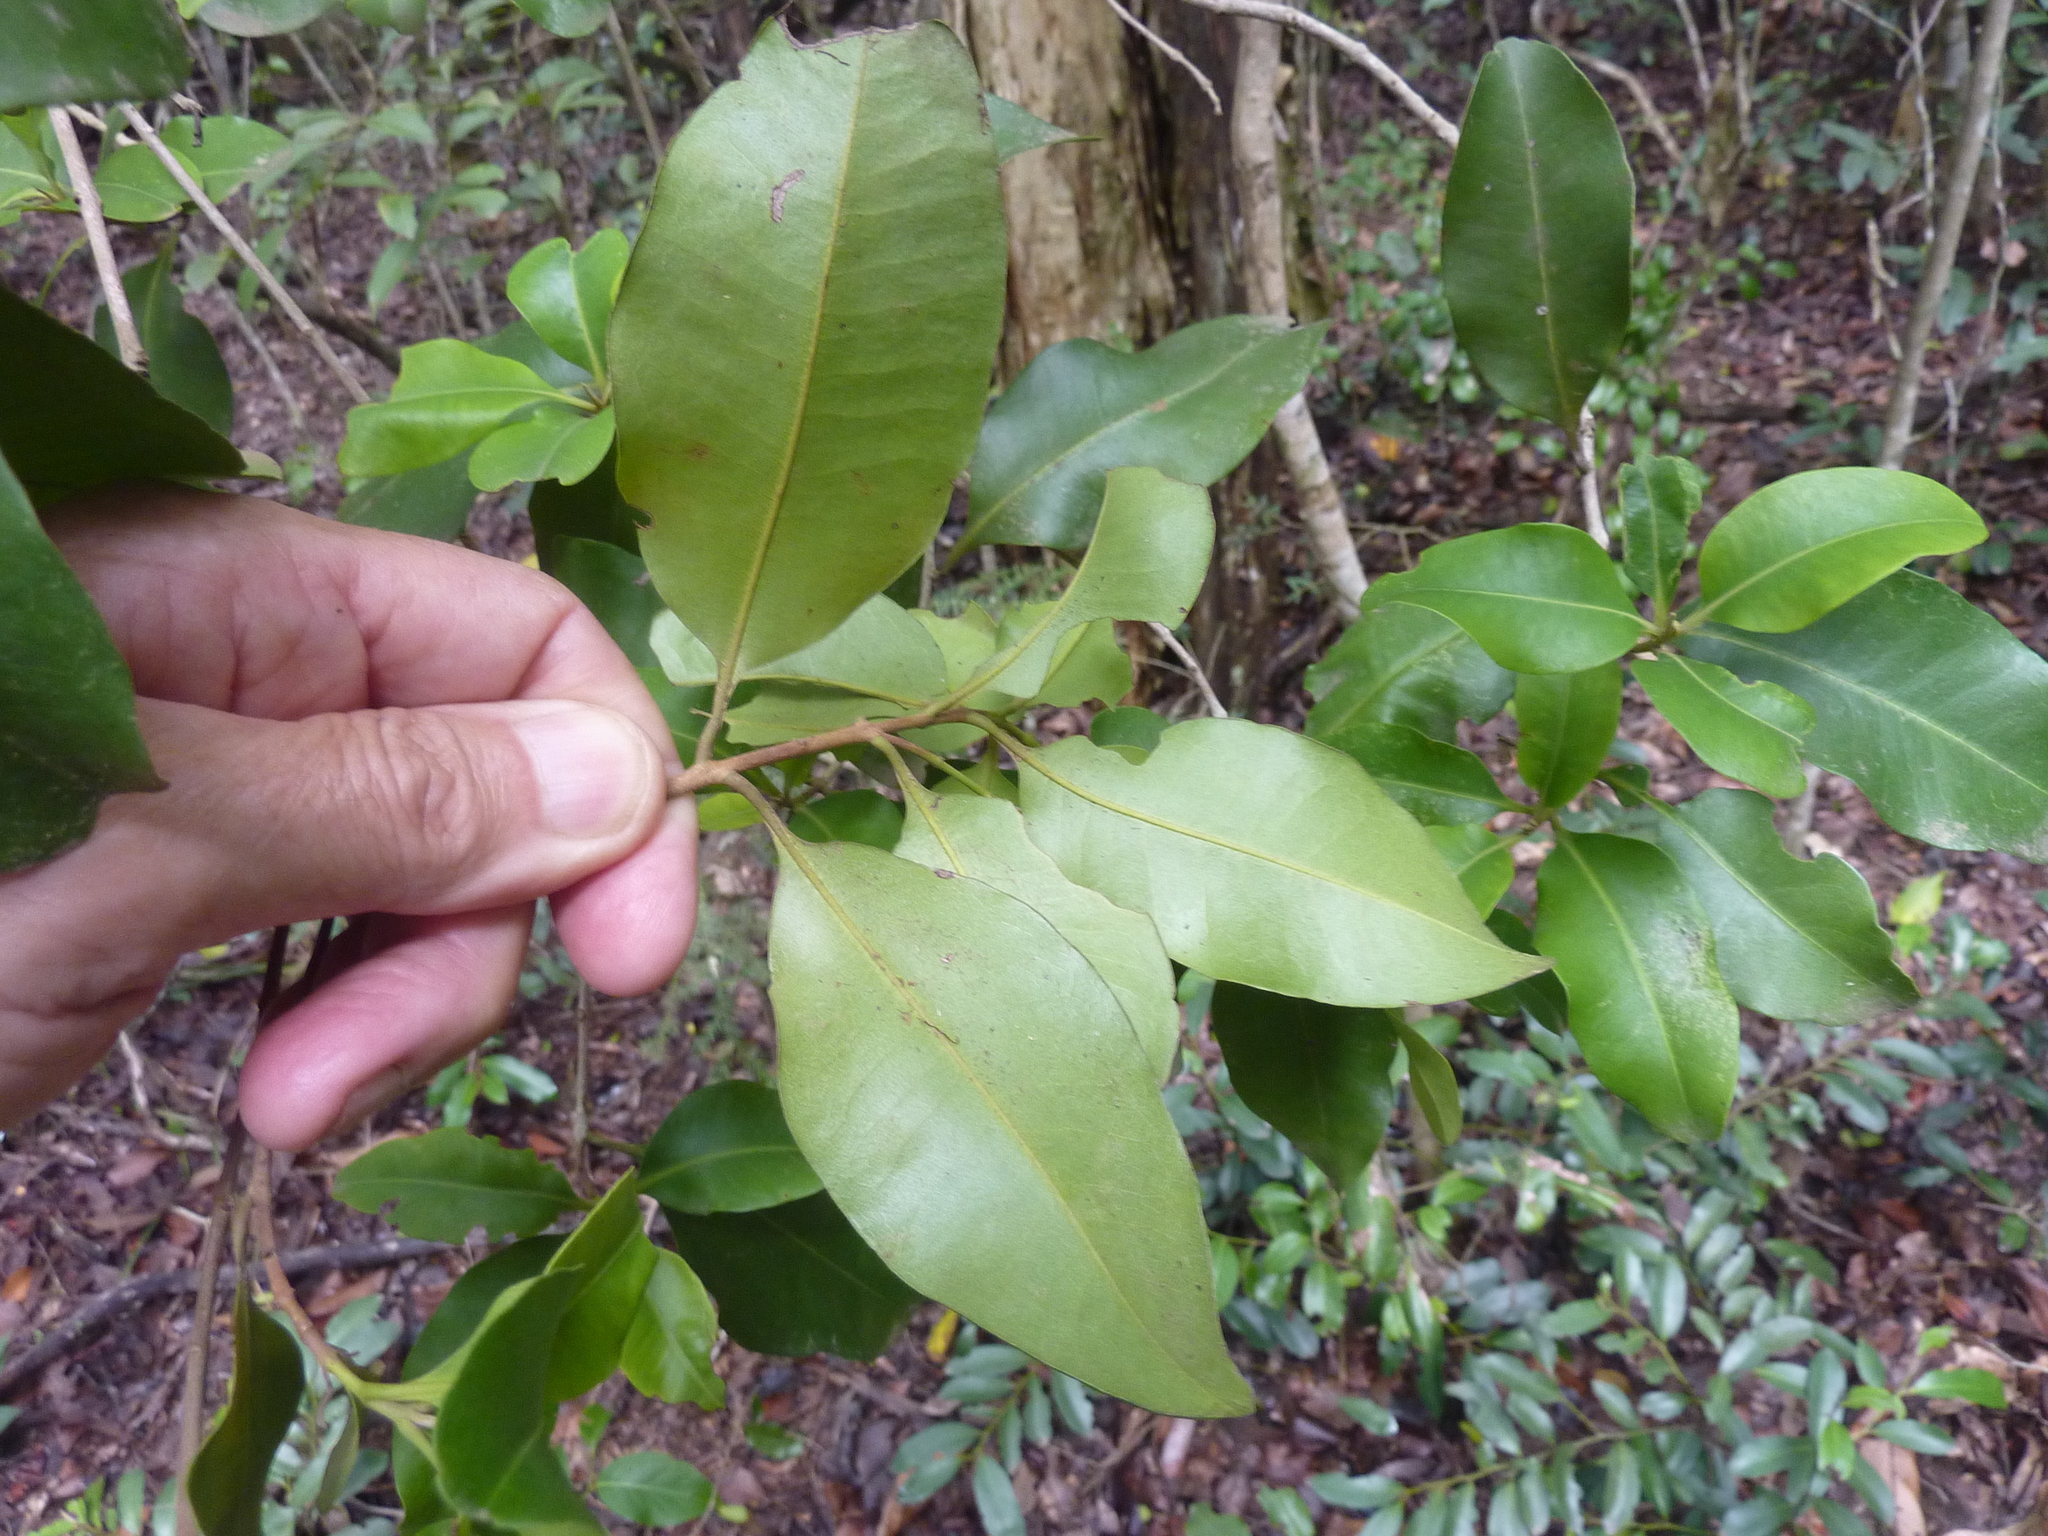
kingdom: Plantae
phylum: Tracheophyta
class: Magnoliopsida
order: Myrtales
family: Myrtaceae
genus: Xanthostemon
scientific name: Xanthostemon oppositifolius
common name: Southern penda
